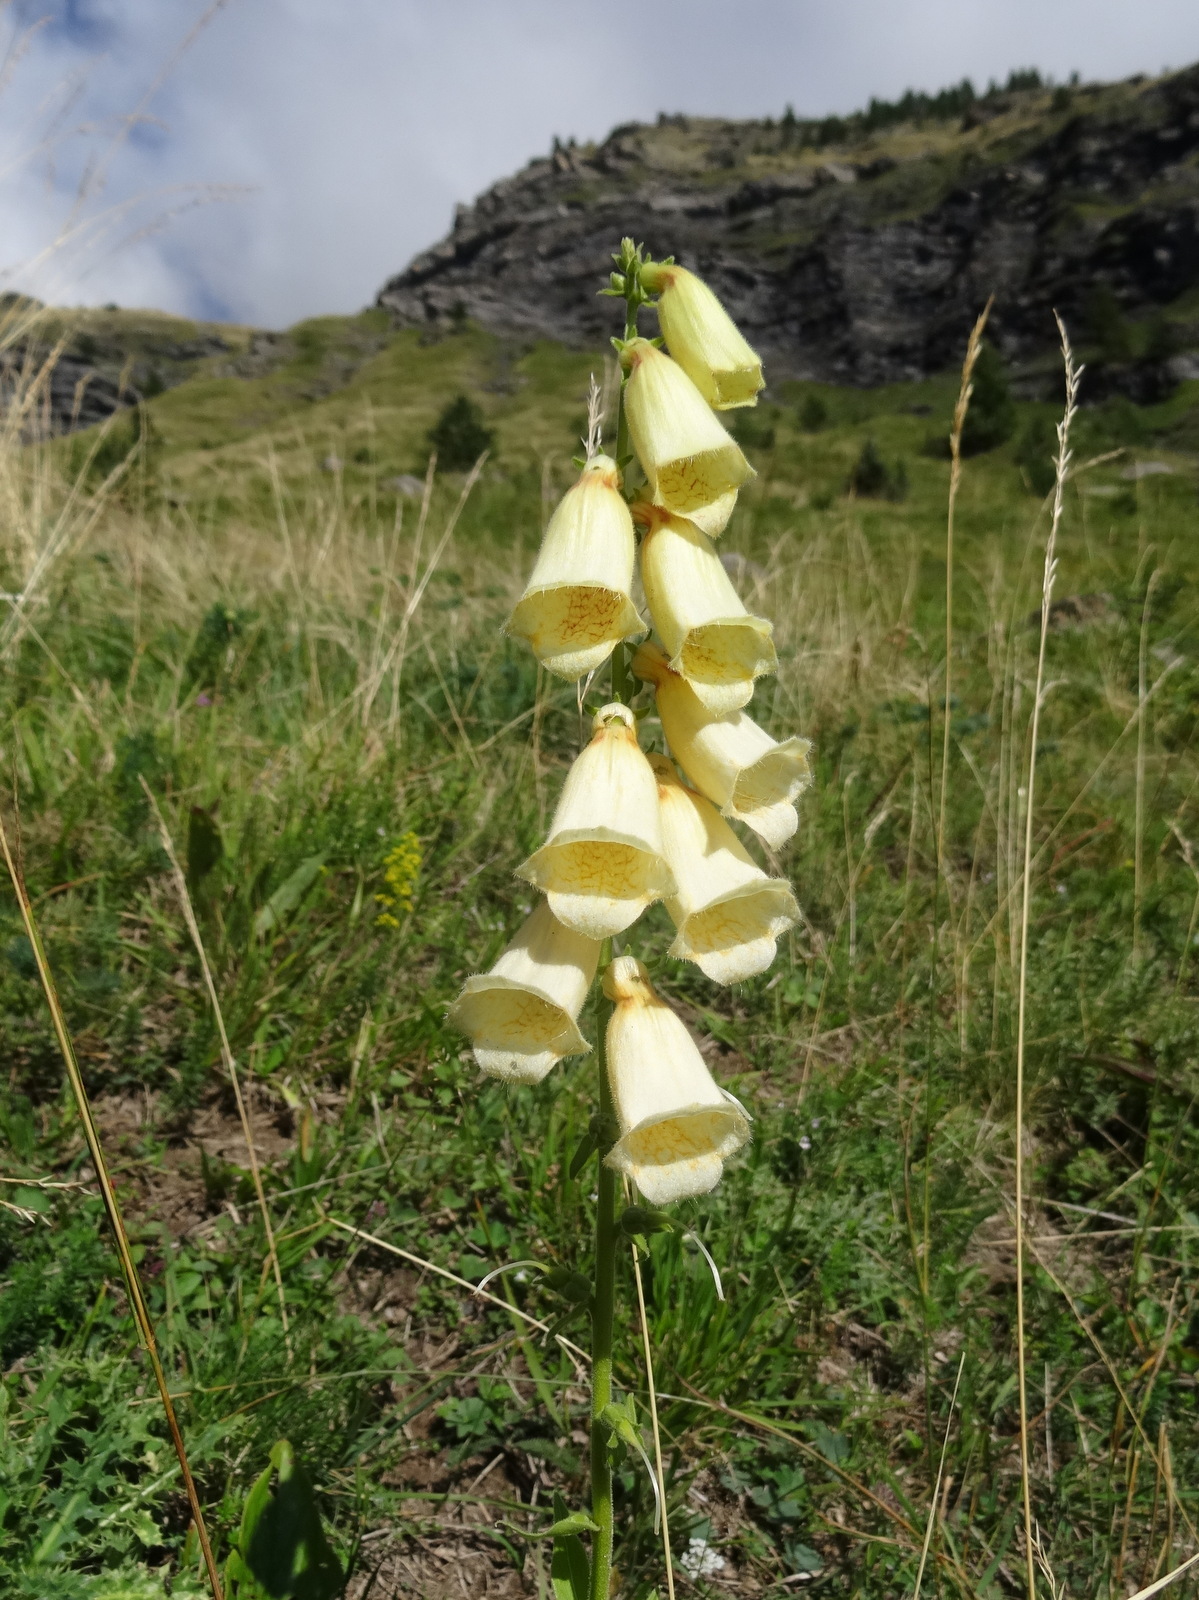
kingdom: Plantae
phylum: Tracheophyta
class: Magnoliopsida
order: Lamiales
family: Plantaginaceae
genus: Digitalis
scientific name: Digitalis grandiflora
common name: Yellow foxglove
